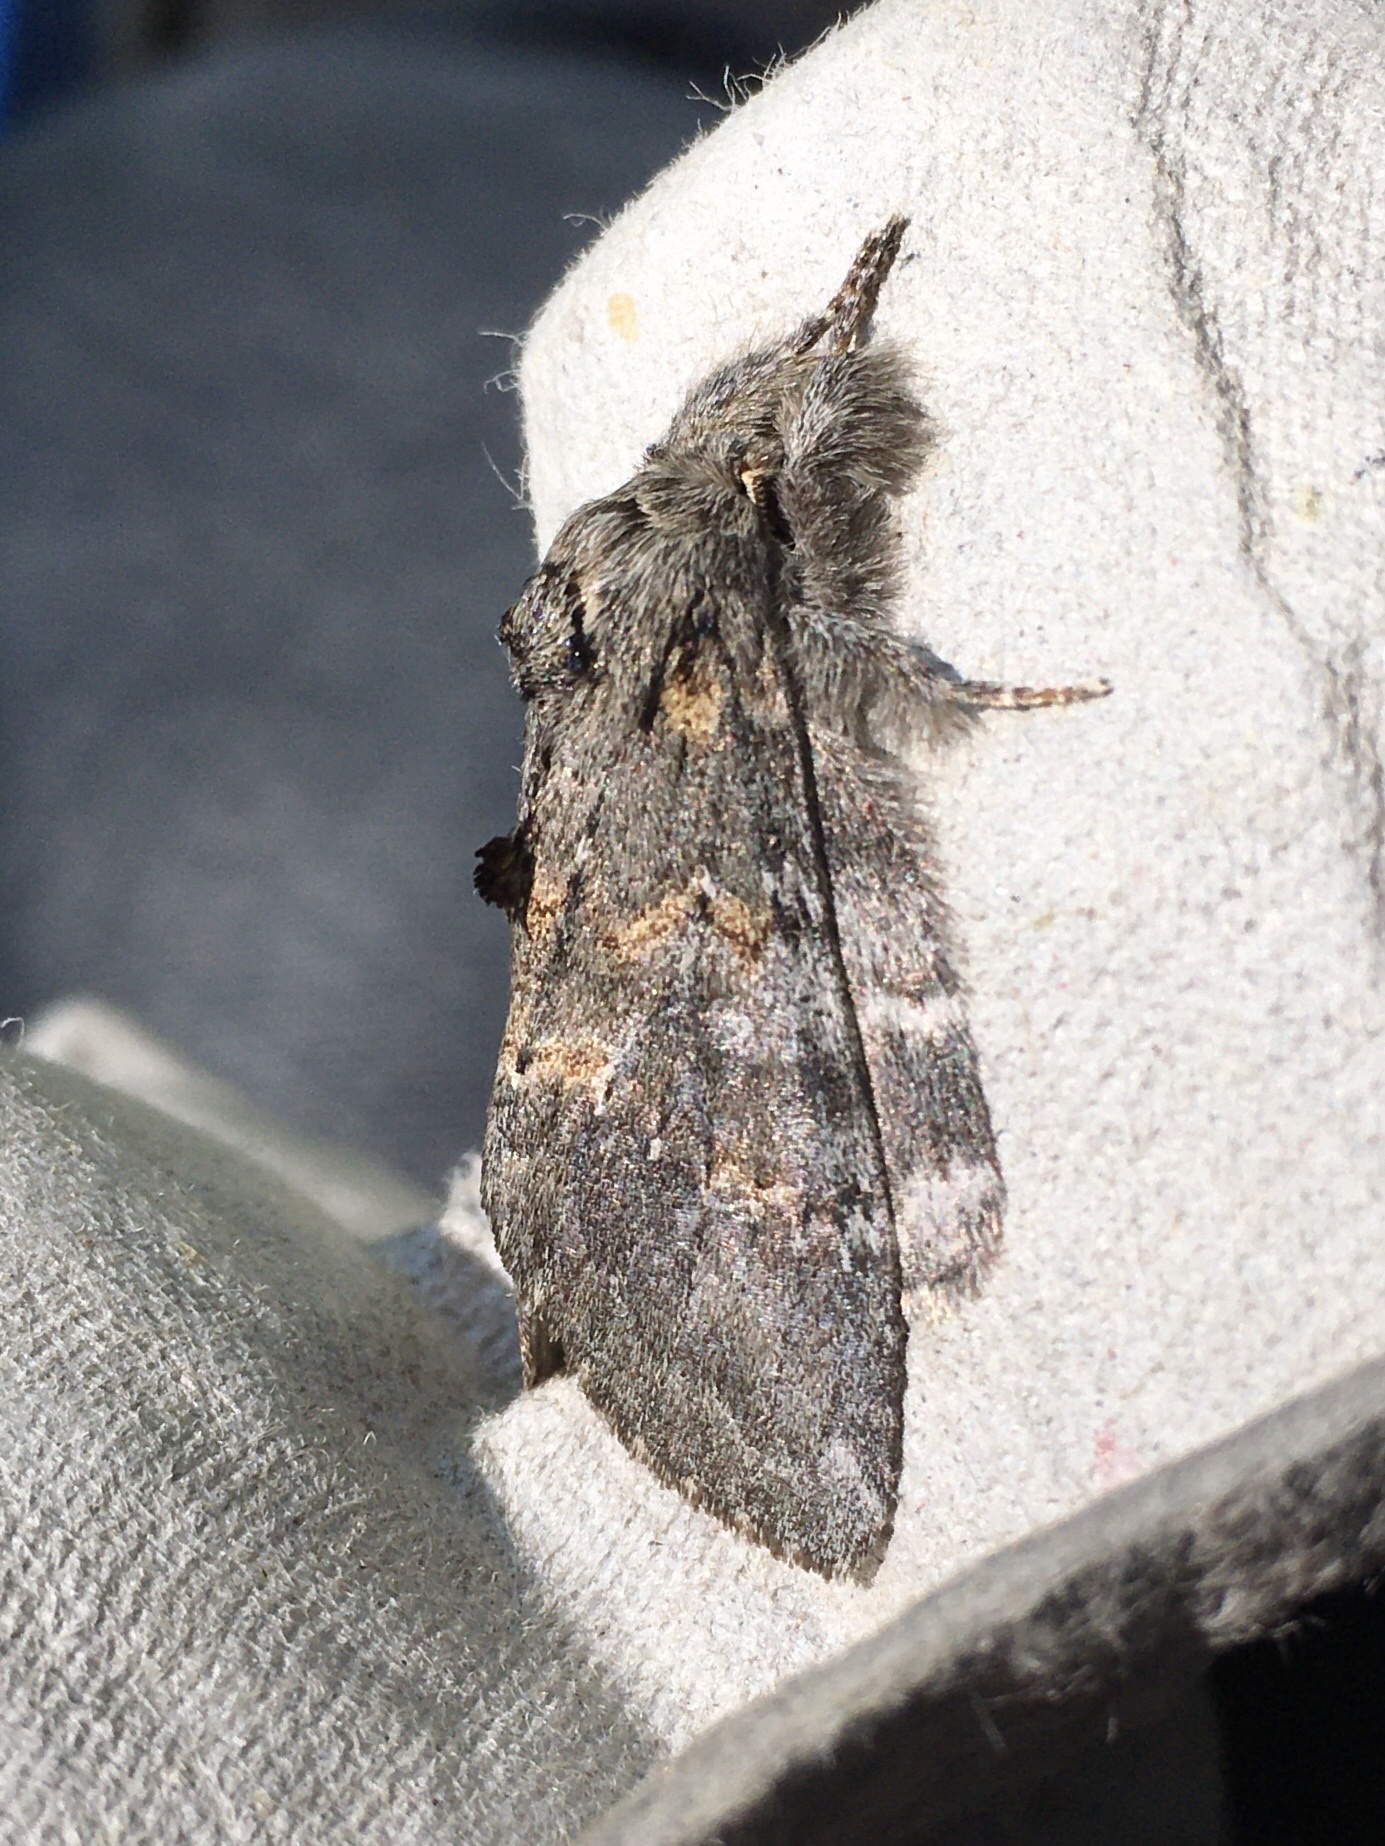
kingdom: Animalia
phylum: Arthropoda
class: Insecta
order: Lepidoptera
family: Notodontidae
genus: Peridea
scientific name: Peridea angulosa
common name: Angulose prominent
